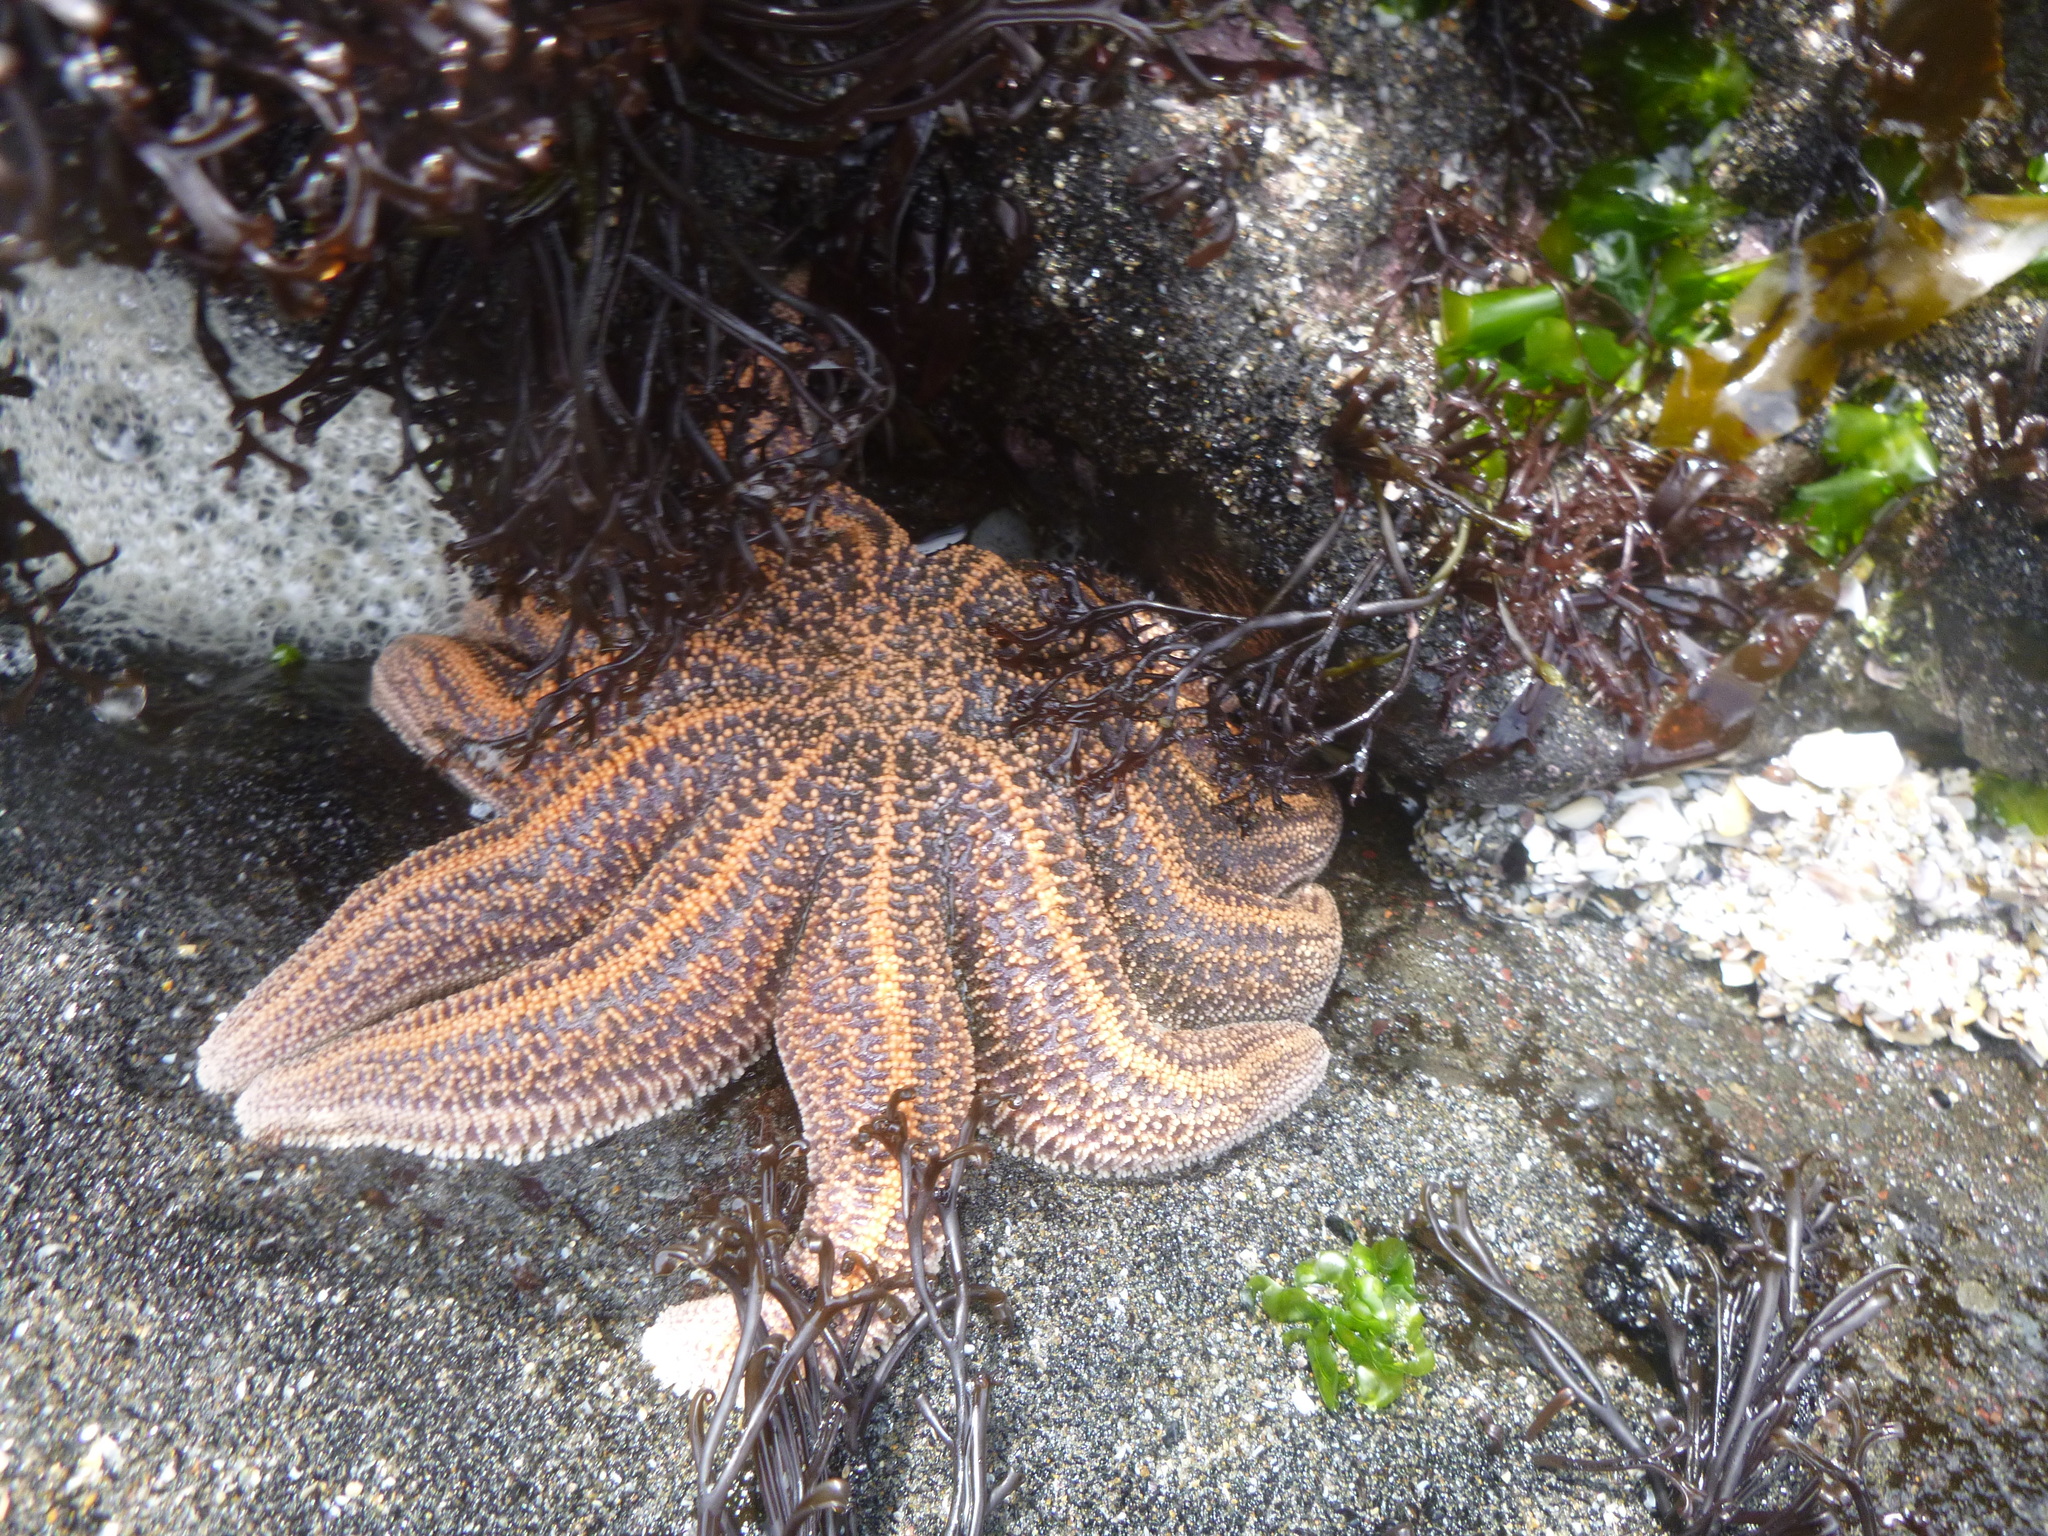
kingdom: Animalia
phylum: Echinodermata
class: Asteroidea
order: Forcipulatida
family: Stichasteridae
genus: Stichaster
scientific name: Stichaster australis
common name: Reef starfish
